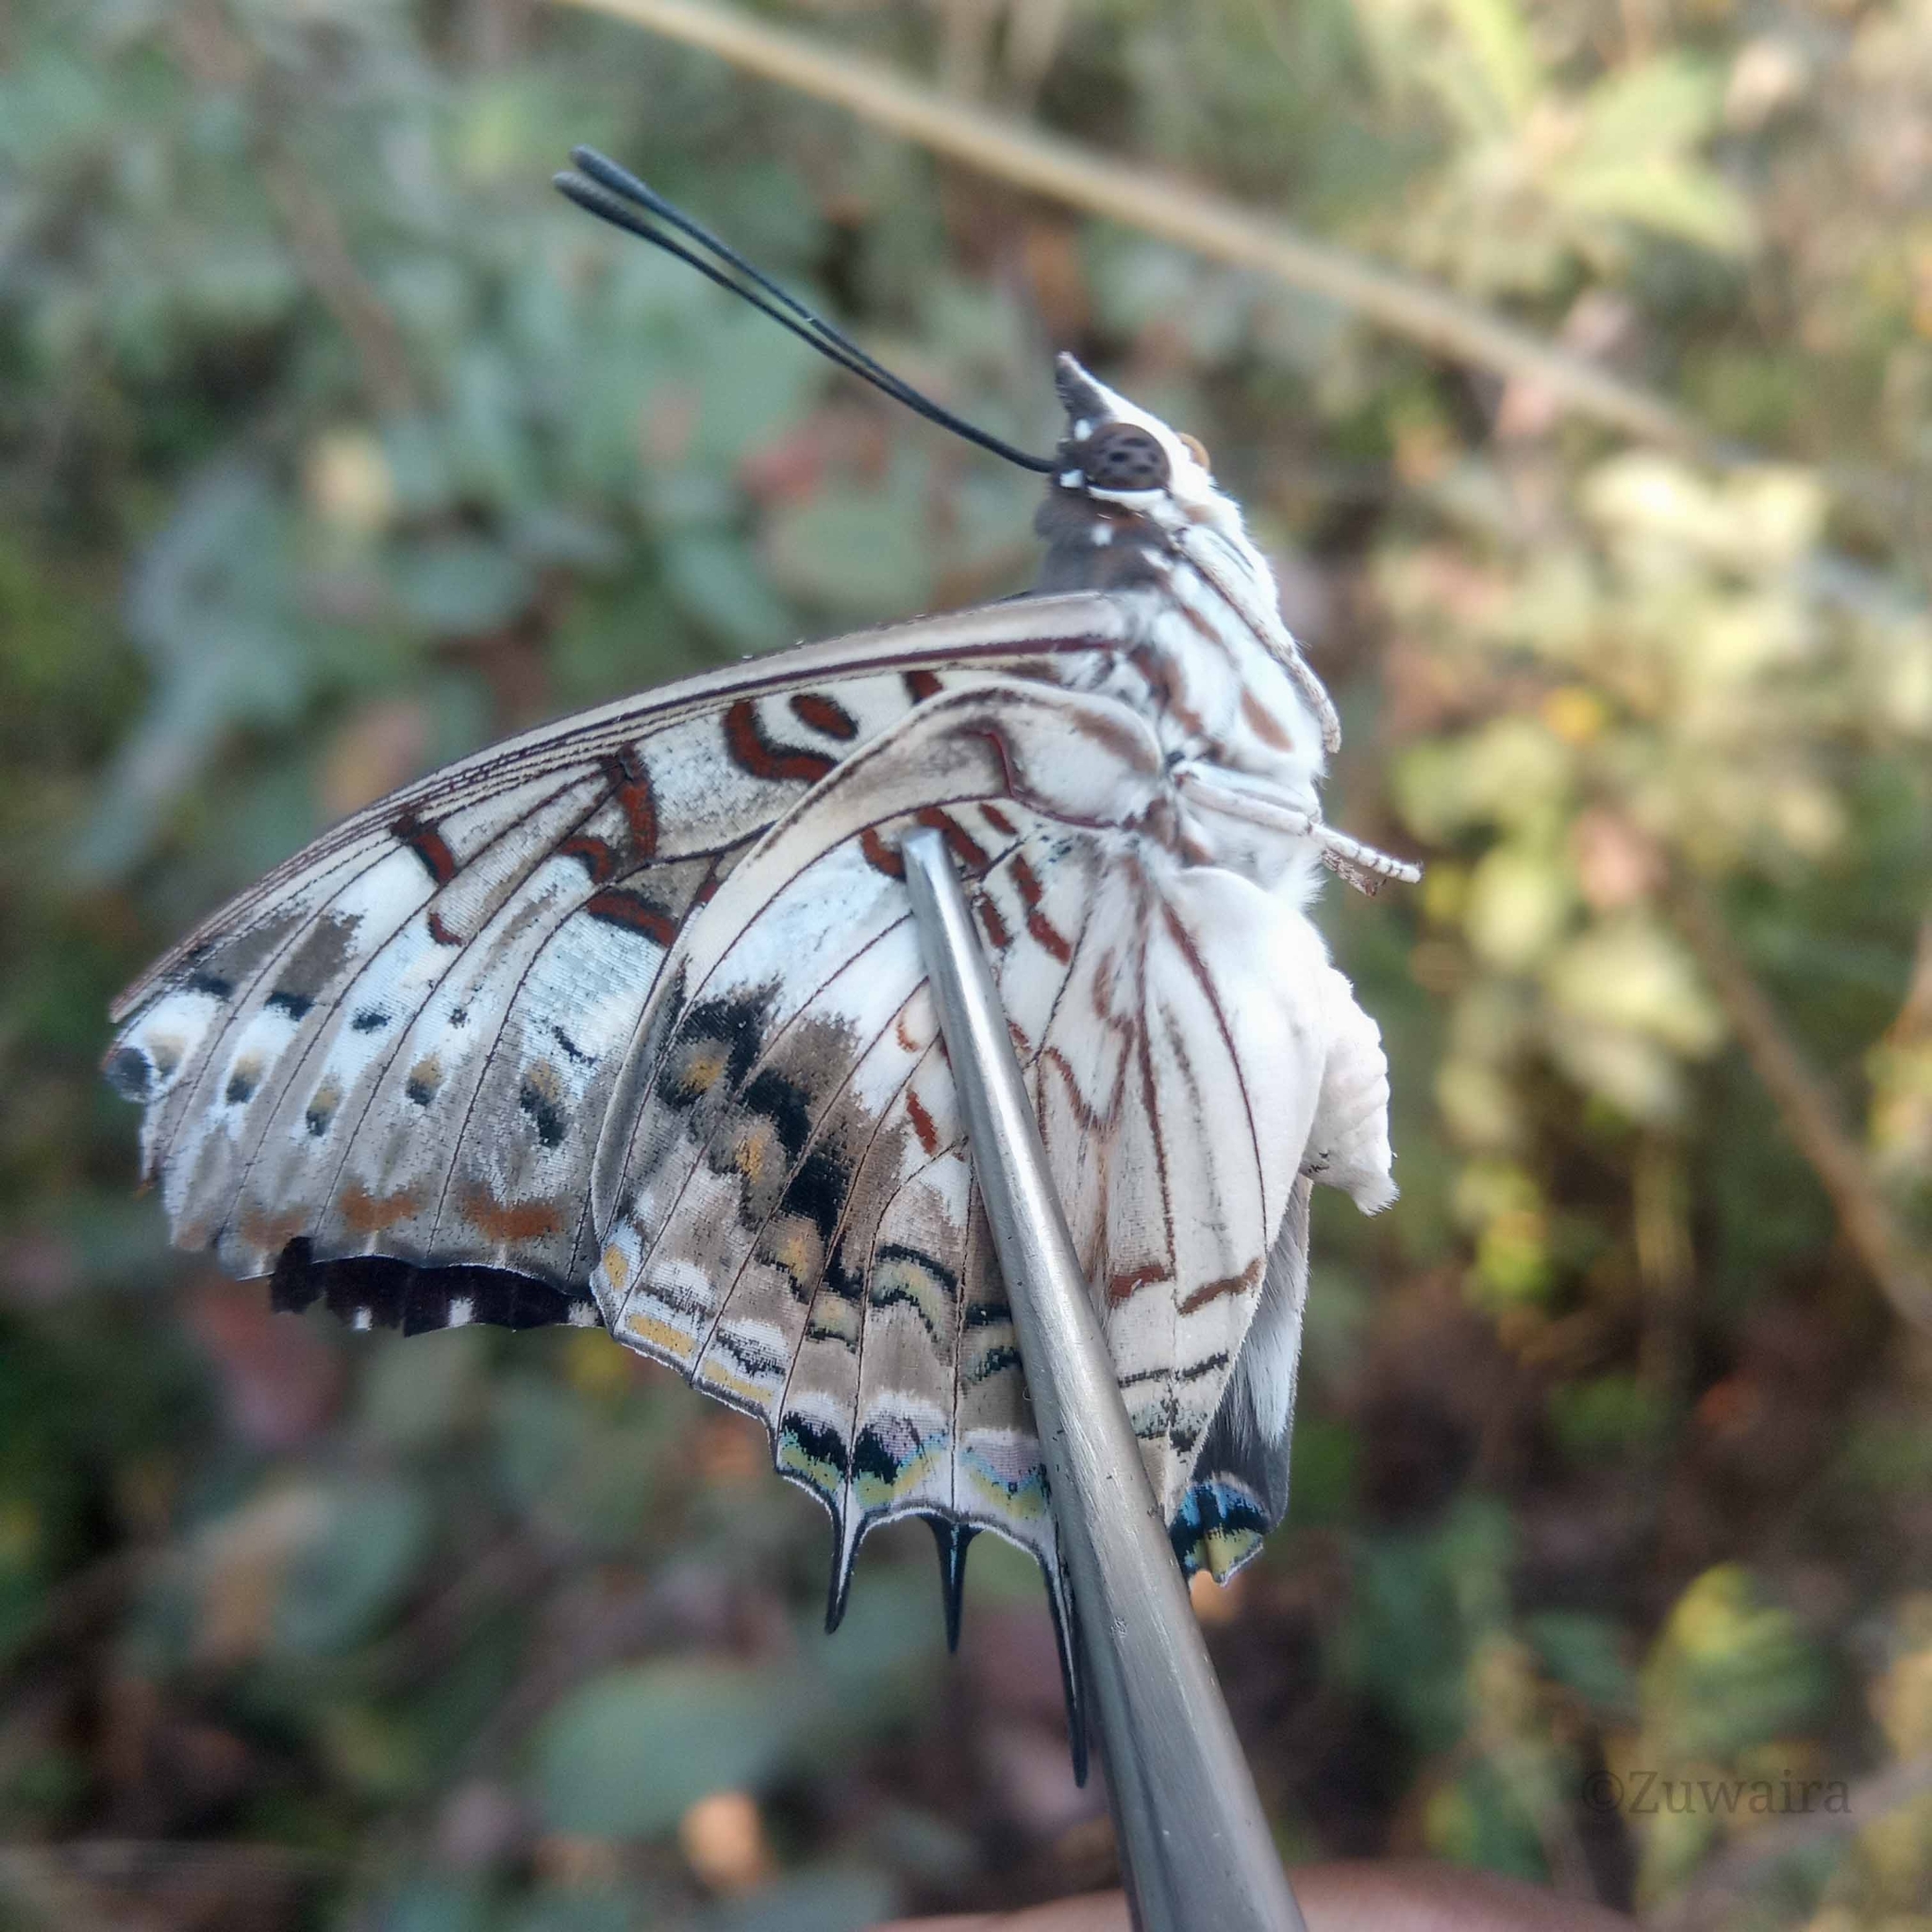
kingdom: Animalia
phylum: Arthropoda
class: Insecta
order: Lepidoptera
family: Nymphalidae
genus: Charaxes
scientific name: Charaxes achaemenes
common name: Bushveld charaxes
